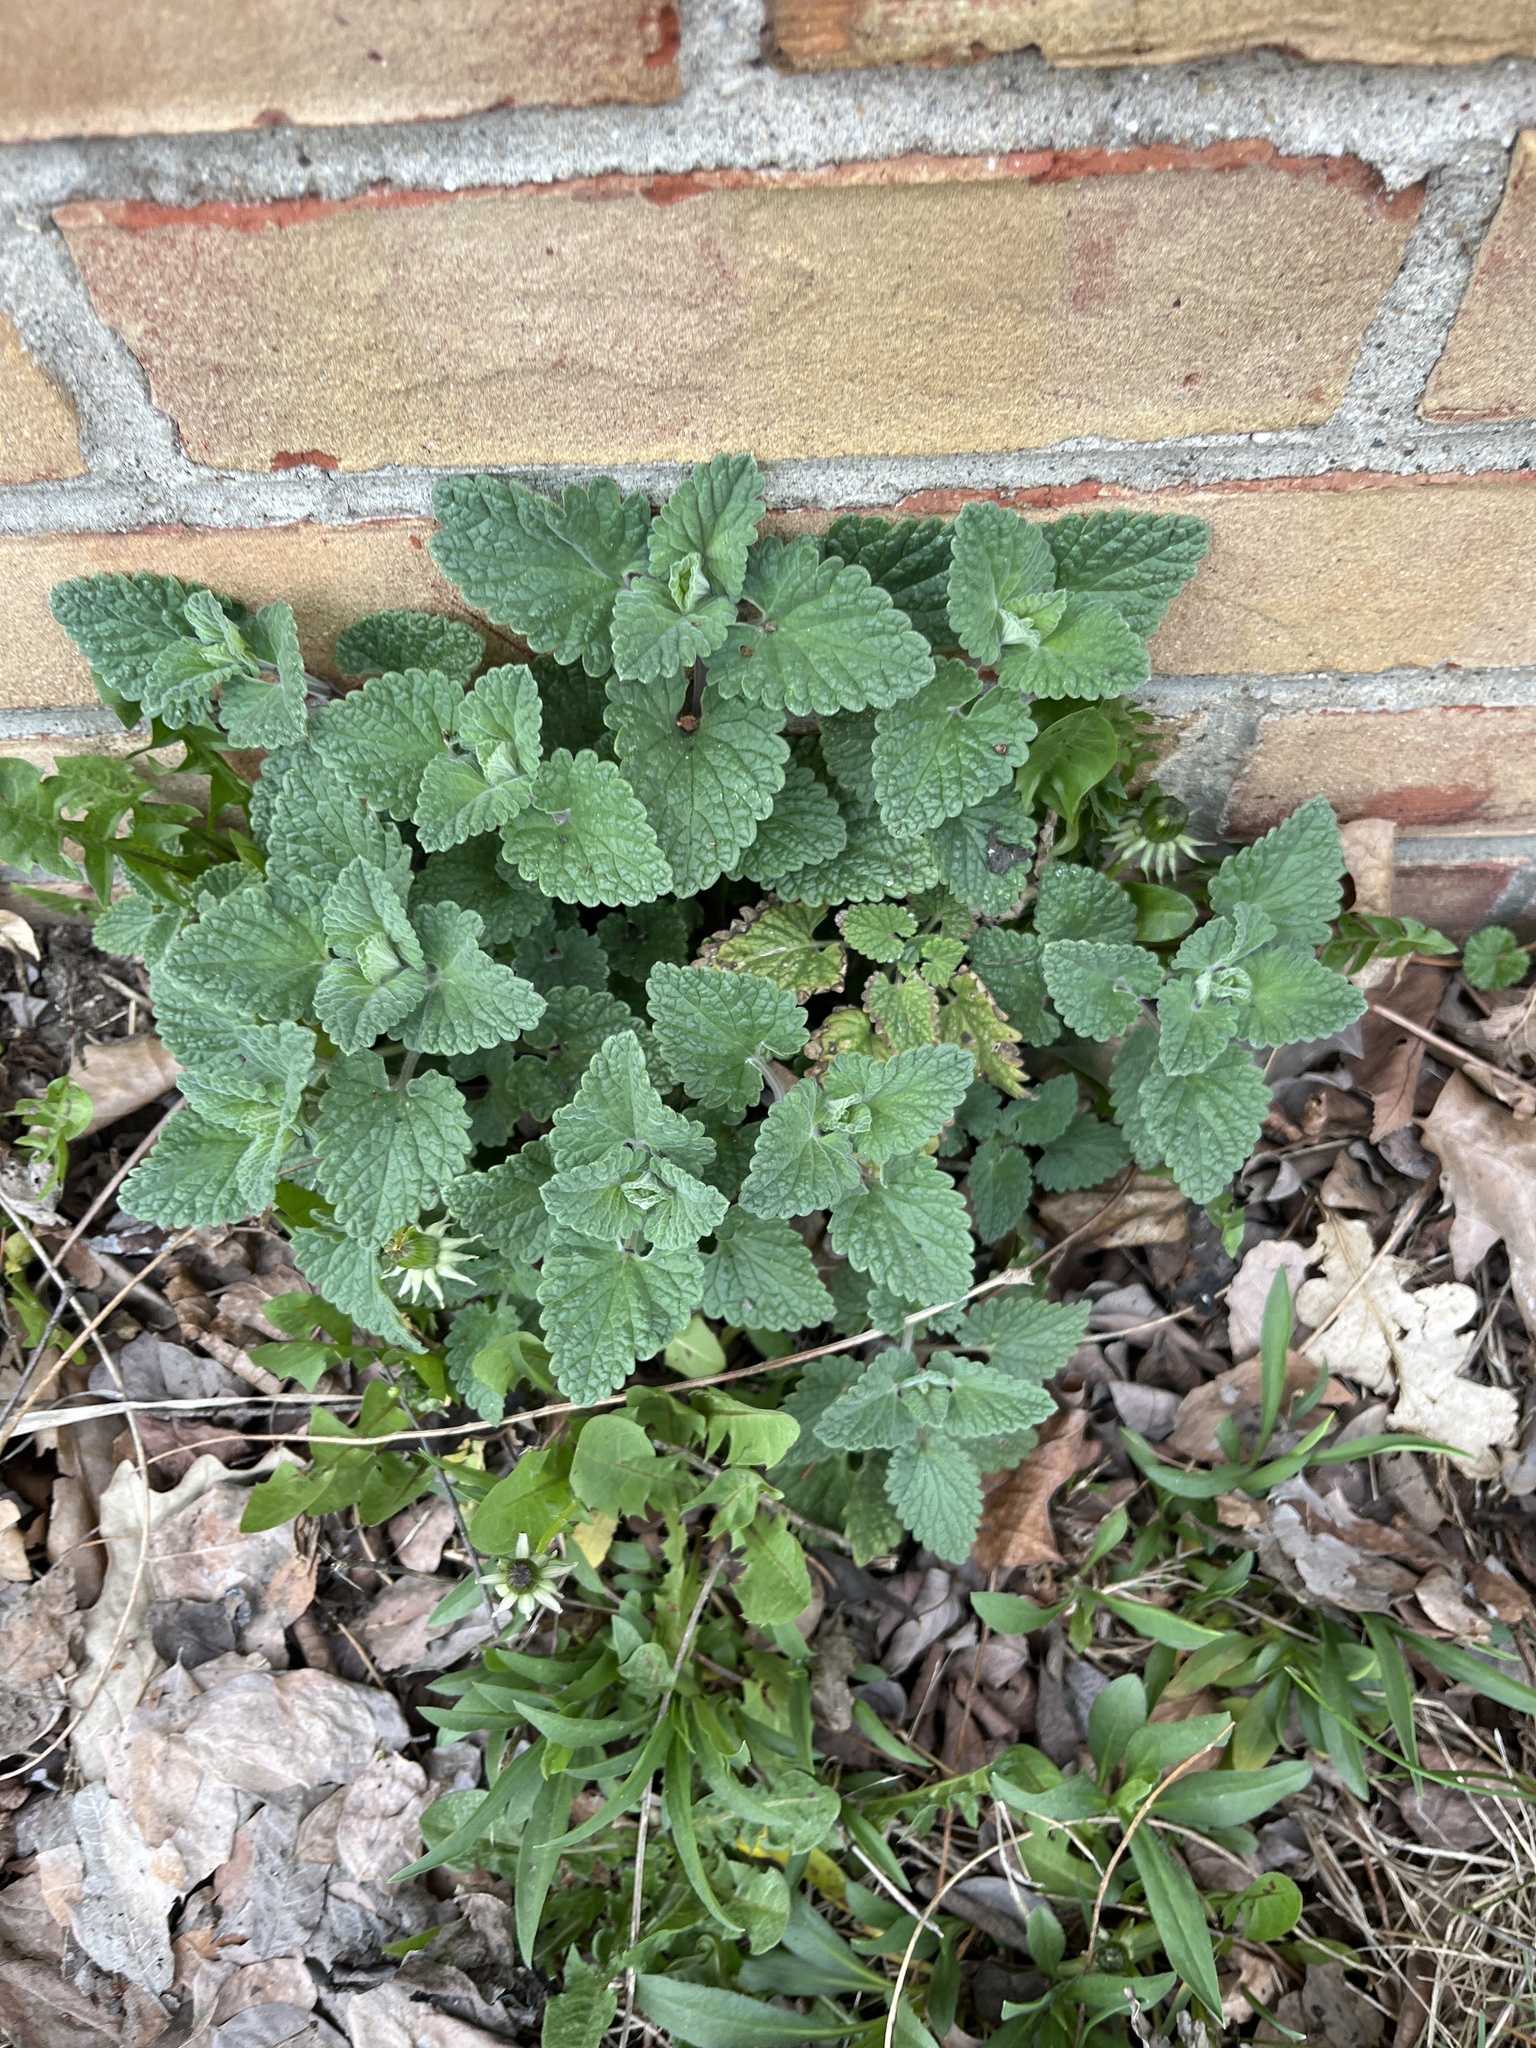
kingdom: Plantae
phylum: Tracheophyta
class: Magnoliopsida
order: Lamiales
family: Lamiaceae
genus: Nepeta
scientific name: Nepeta cataria
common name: Catnip
